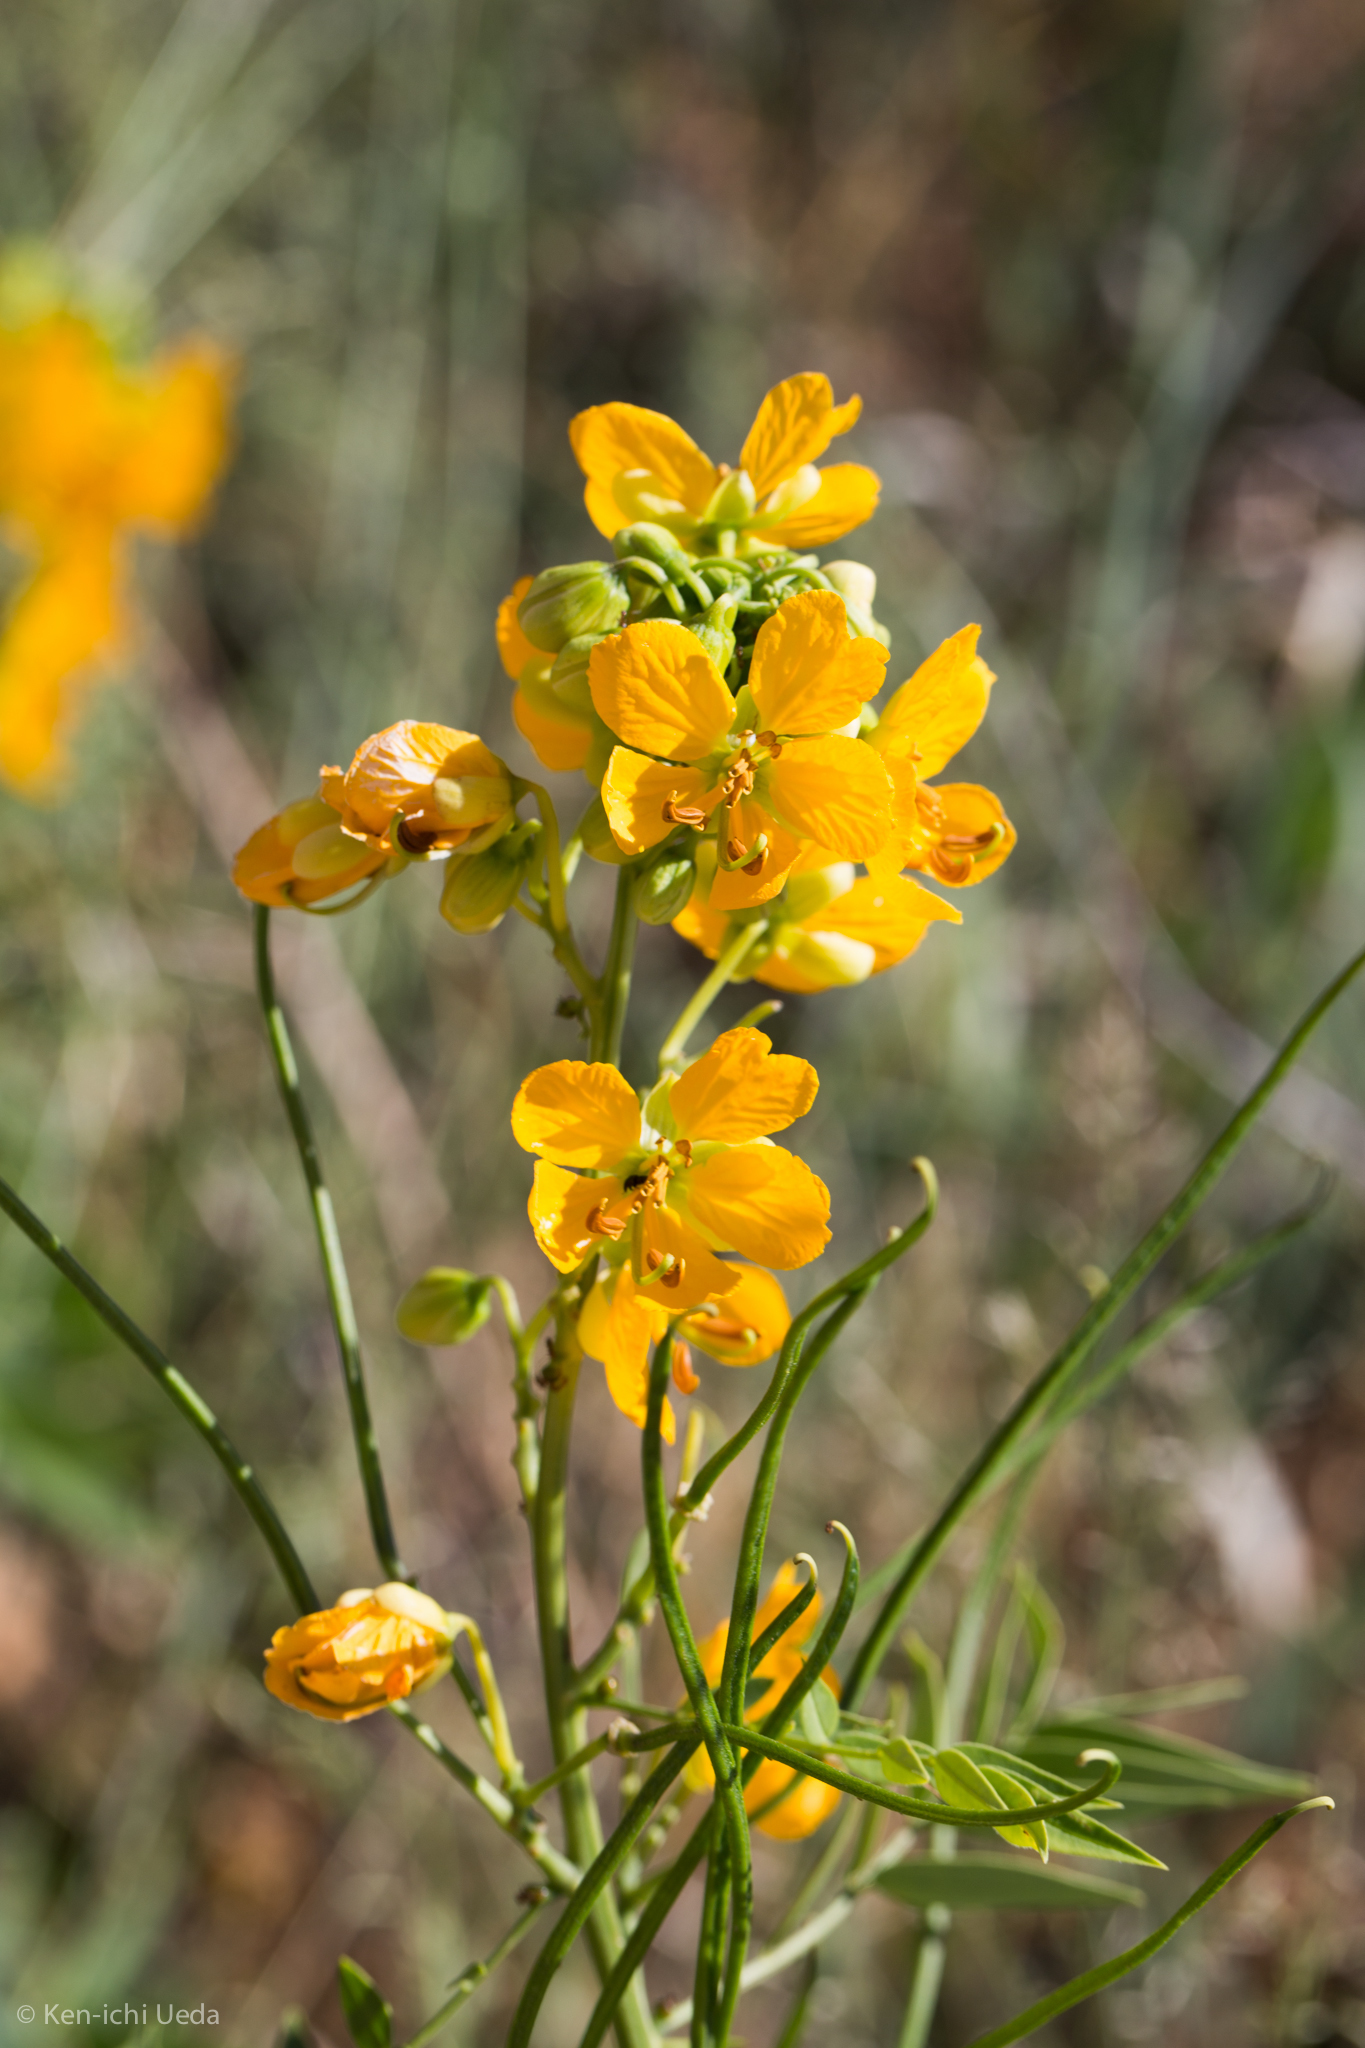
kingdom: Plantae
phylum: Tracheophyta
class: Magnoliopsida
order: Fabales
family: Fabaceae
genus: Senna
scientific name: Senna hirsuta
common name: Woolly senna
